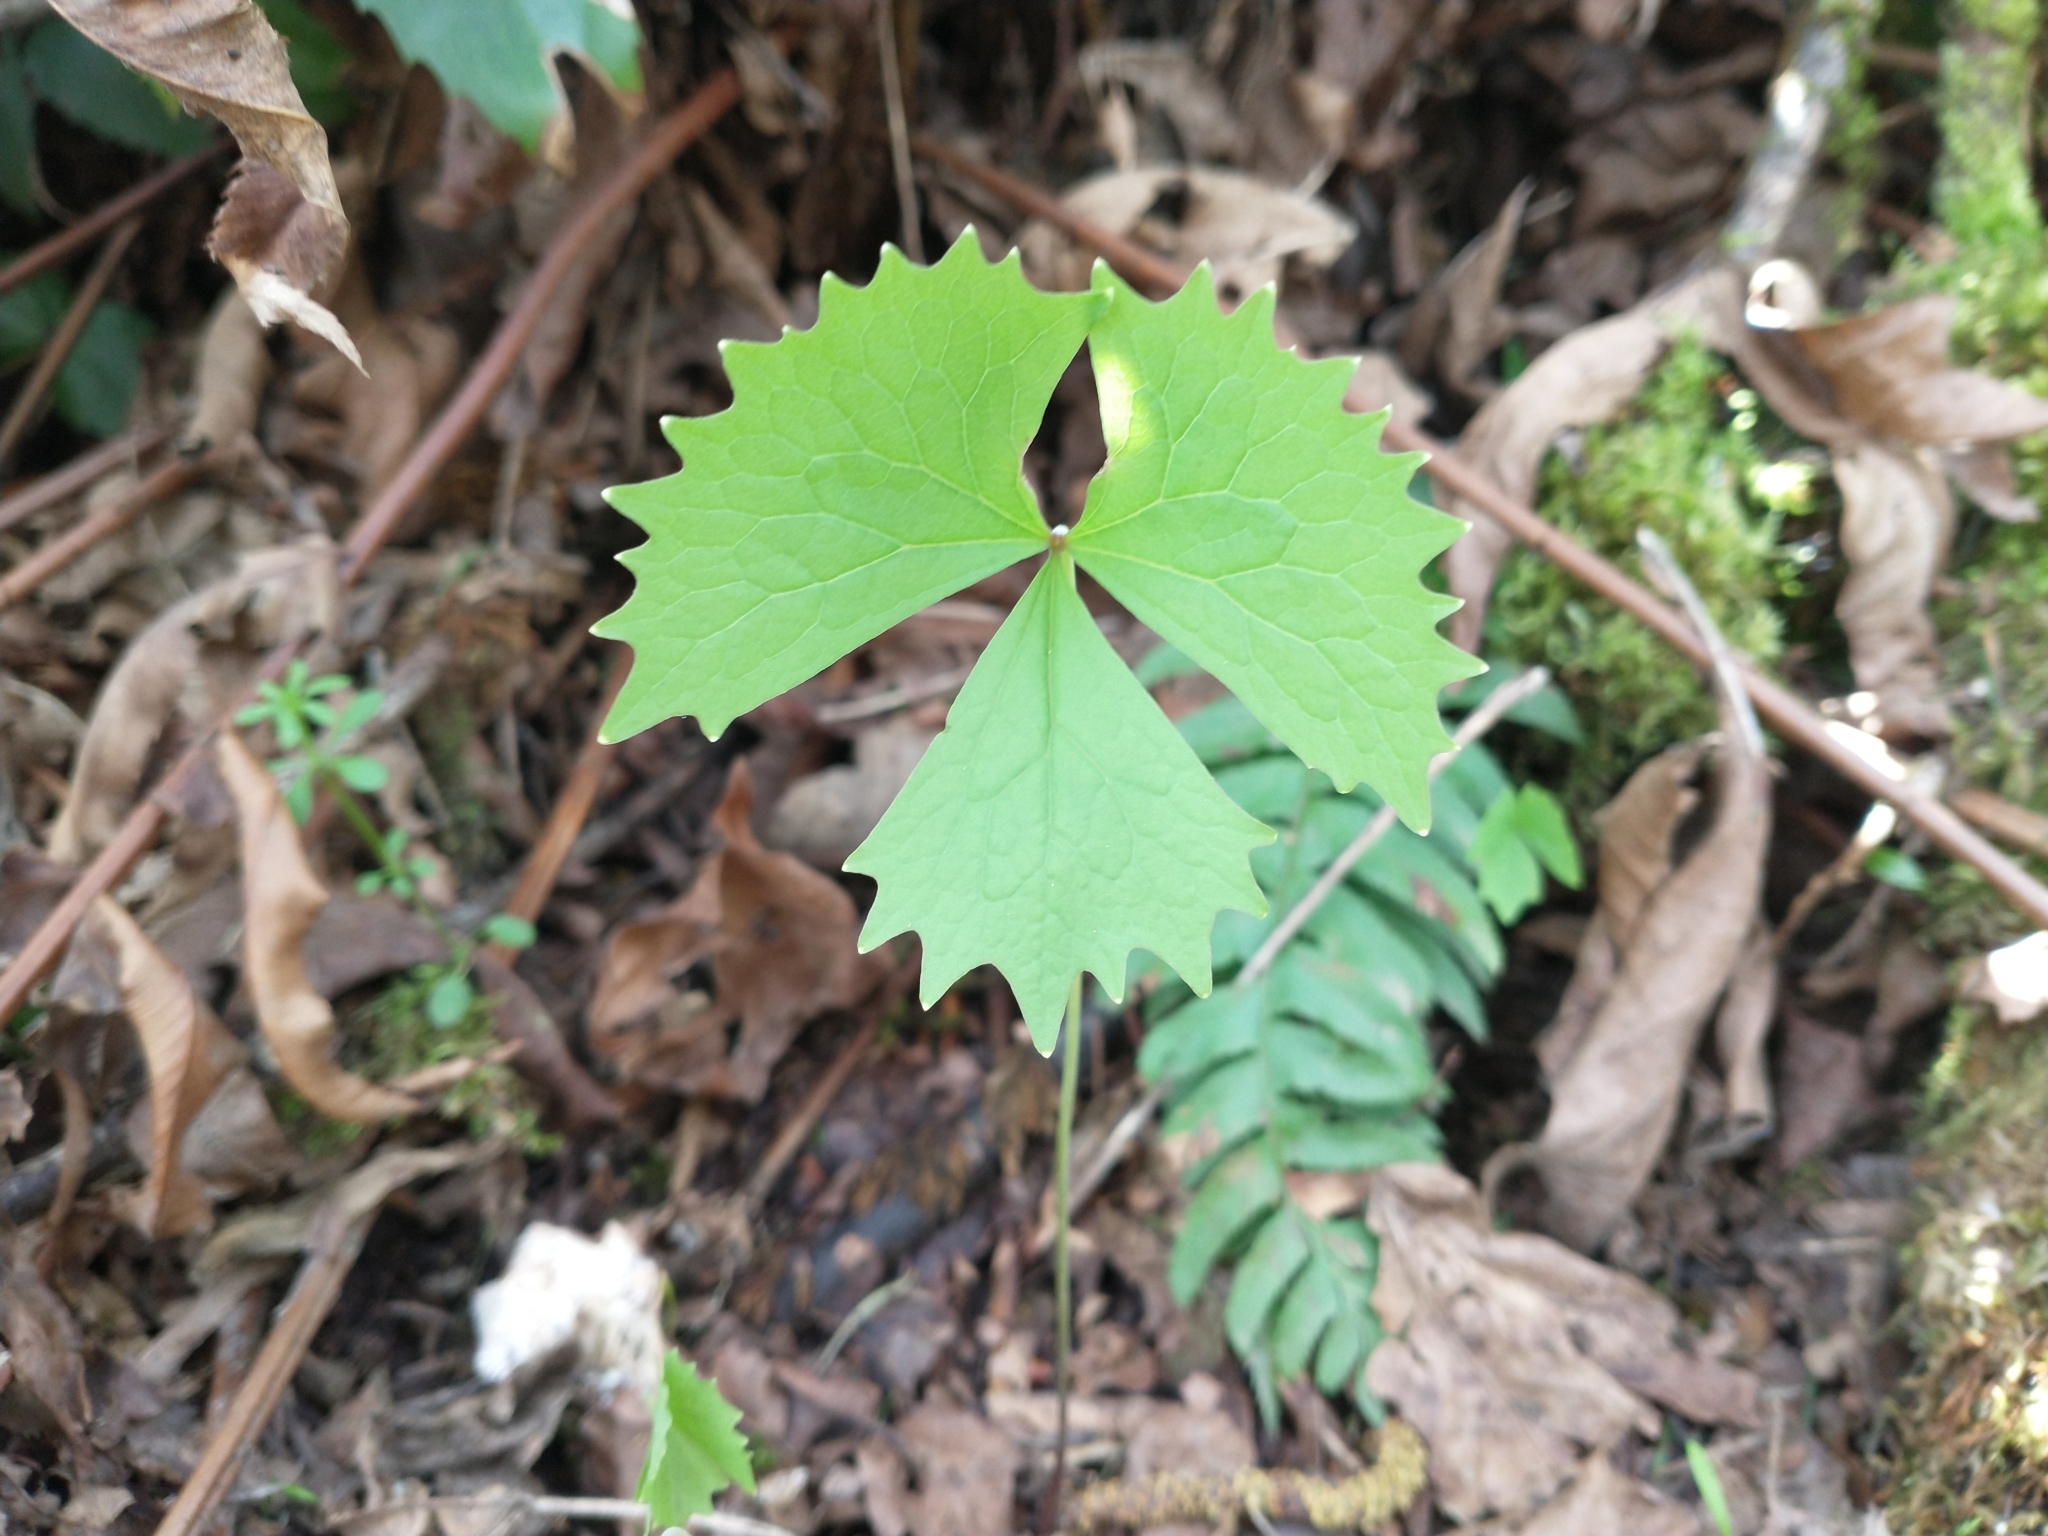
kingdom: Plantae
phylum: Tracheophyta
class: Magnoliopsida
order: Ranunculales
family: Berberidaceae
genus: Achlys
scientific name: Achlys triphylla
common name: Vanilla-leaf
